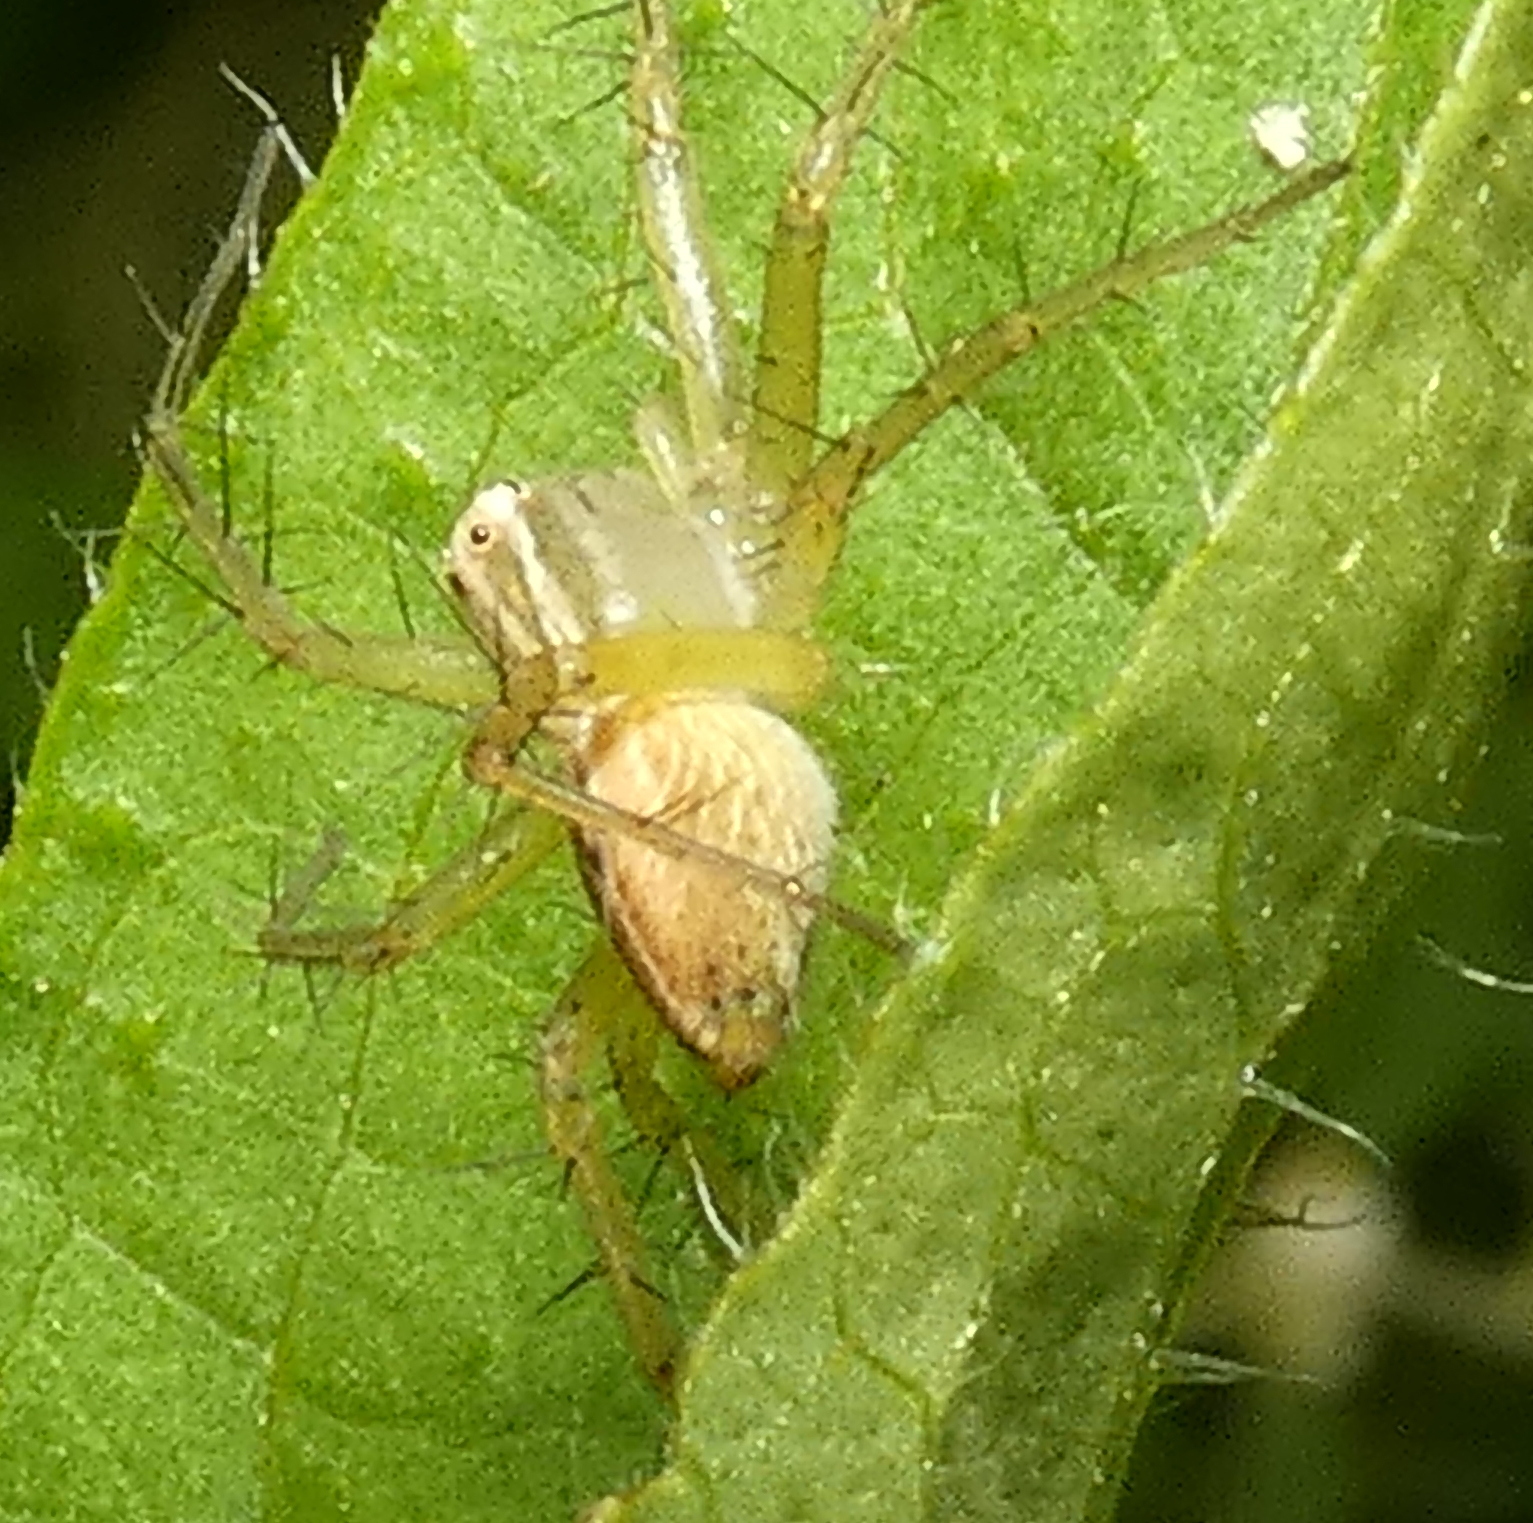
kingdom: Animalia
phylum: Arthropoda
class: Arachnida
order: Araneae
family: Oxyopidae
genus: Oxyopes
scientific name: Oxyopes salticus
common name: Lynx spiders
